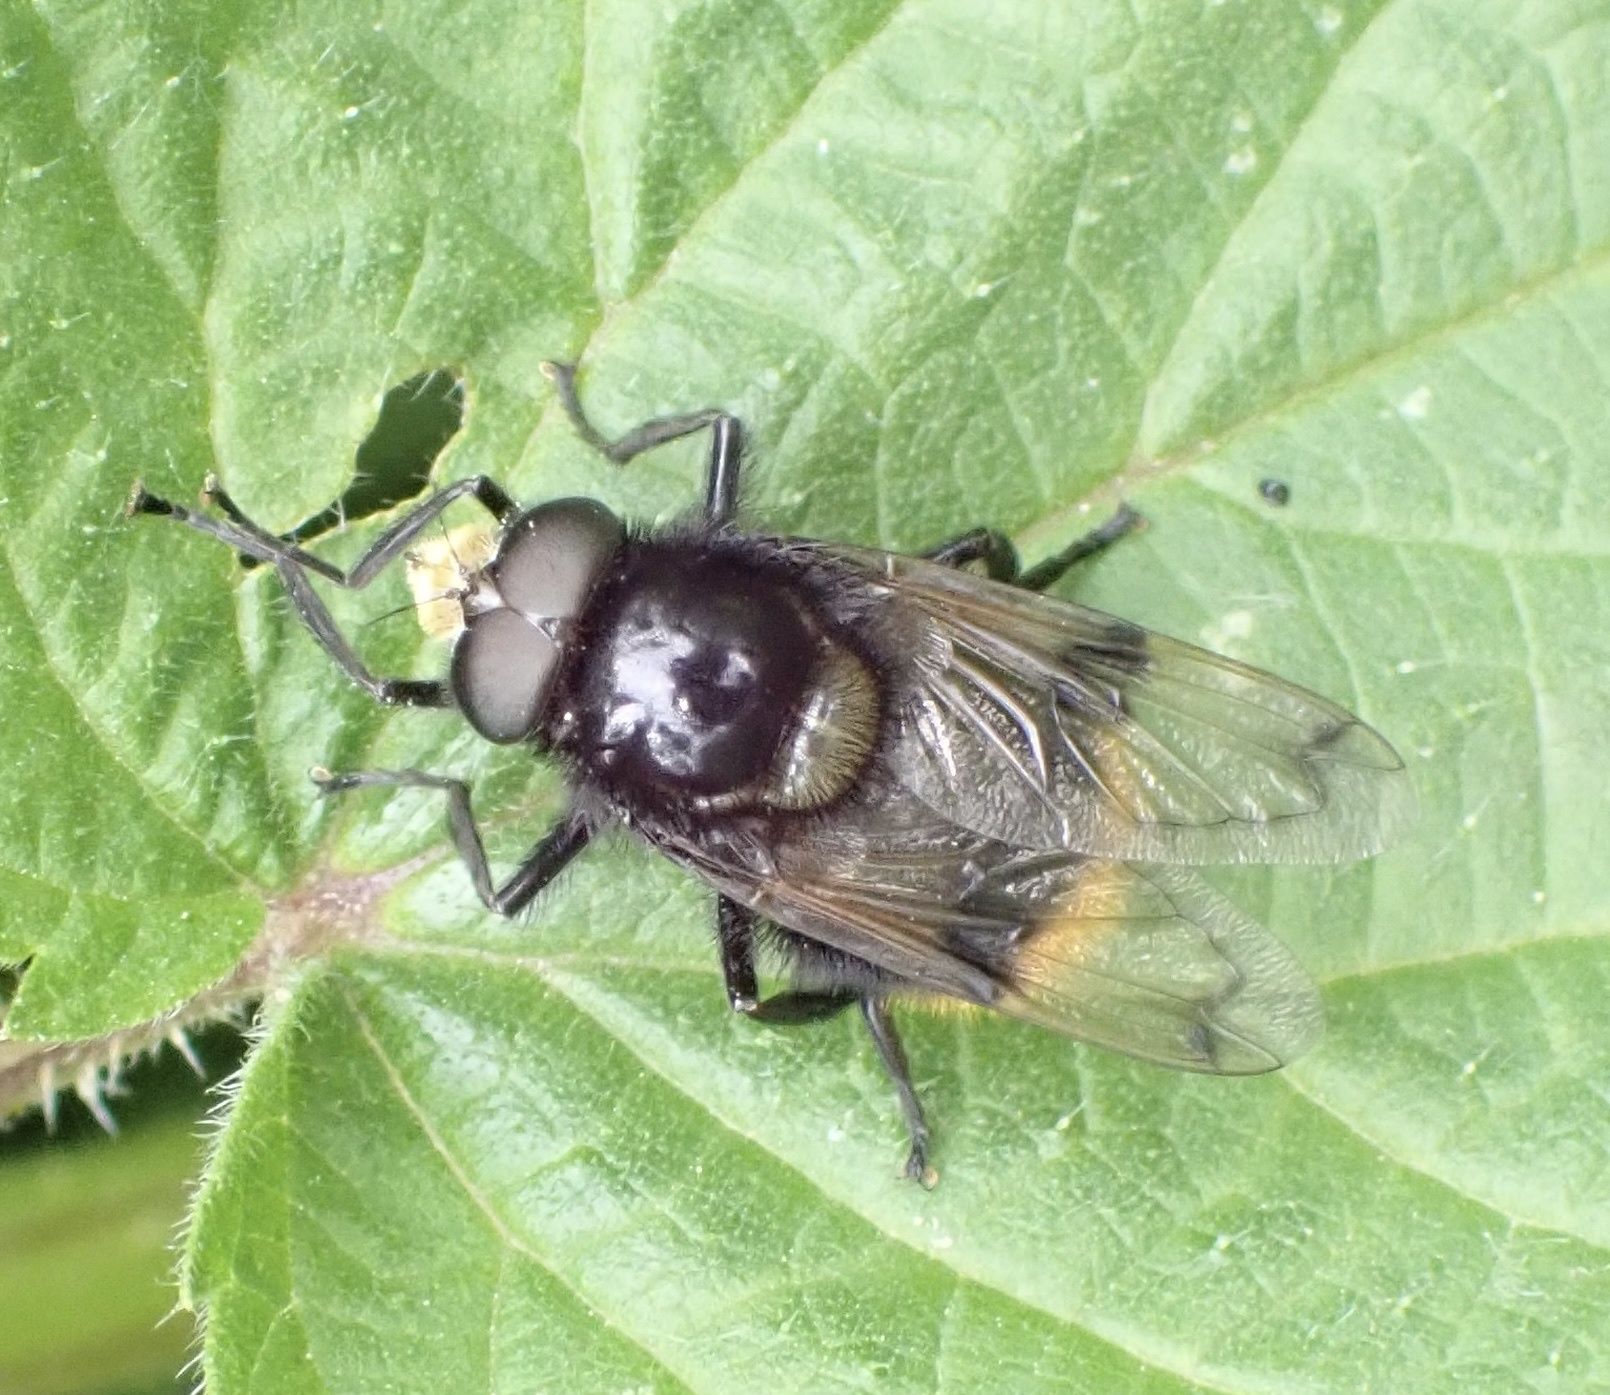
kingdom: Animalia
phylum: Arthropoda
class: Insecta
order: Diptera
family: Syrphidae
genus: Volucella
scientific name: Volucella bombylans
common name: Bumble bee hover fly
